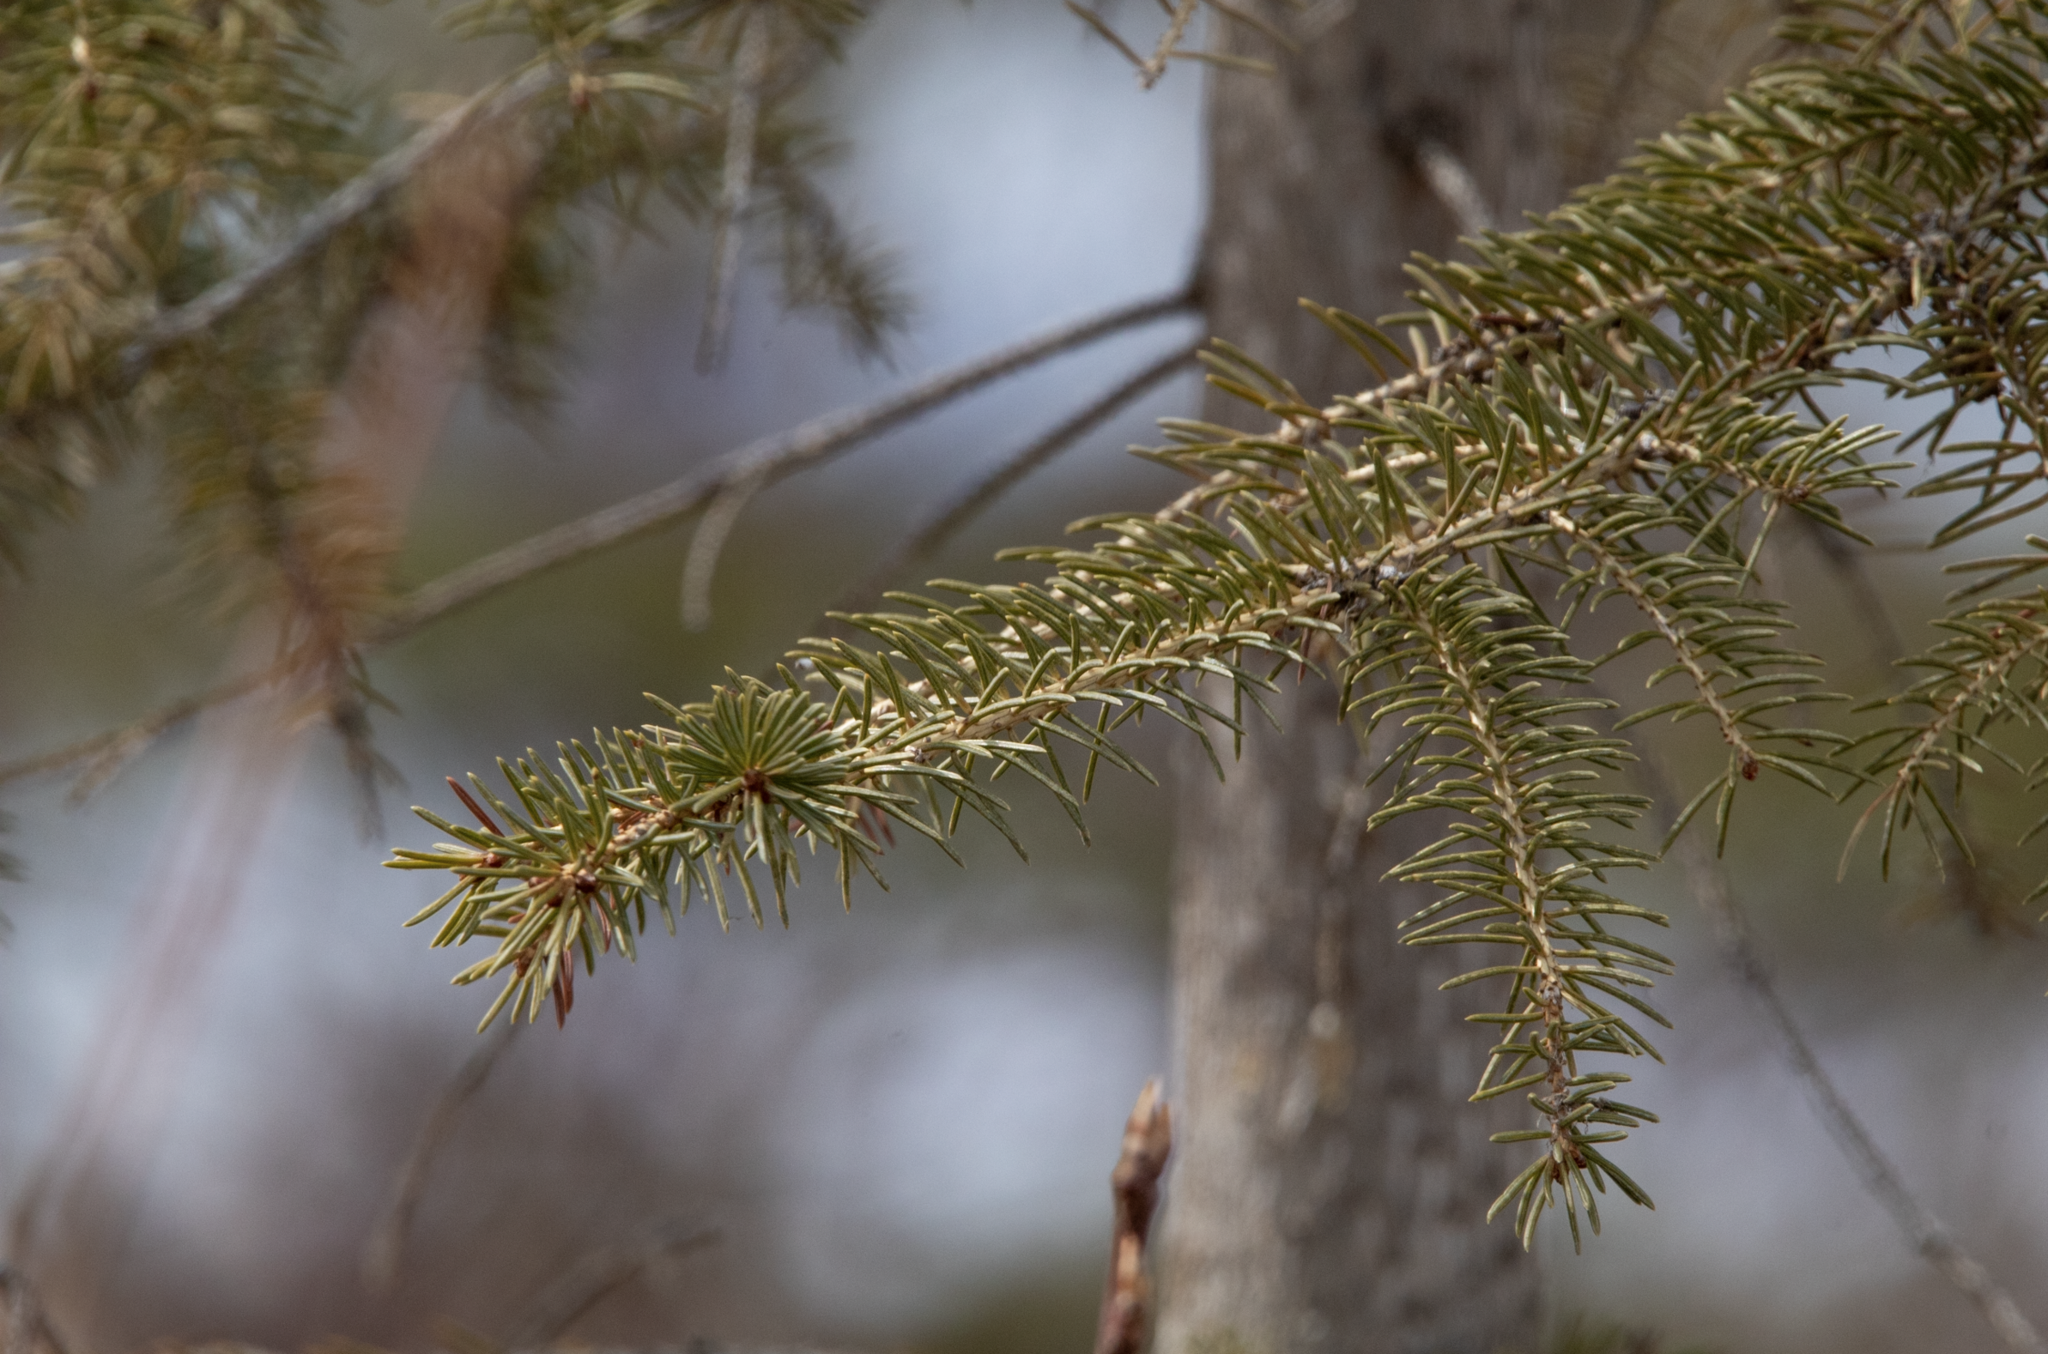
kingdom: Plantae
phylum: Tracheophyta
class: Pinopsida
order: Pinales
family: Pinaceae
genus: Picea
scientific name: Picea glauca
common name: White spruce
